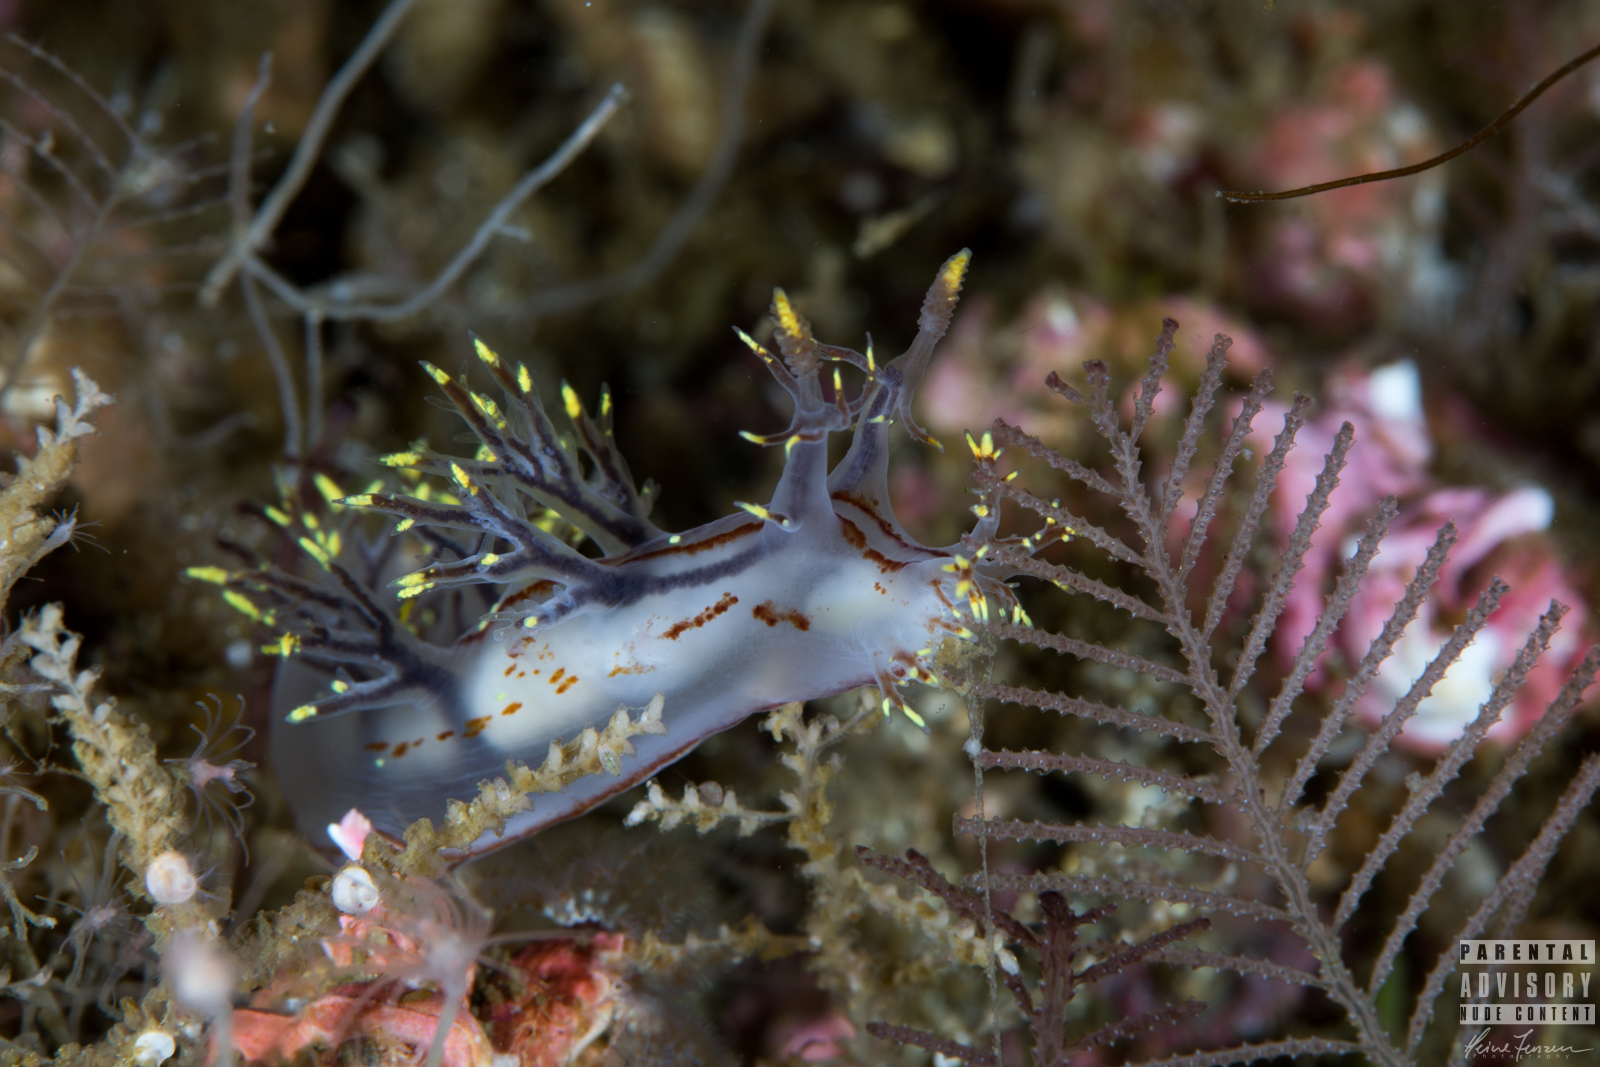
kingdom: Animalia
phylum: Mollusca
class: Gastropoda
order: Nudibranchia
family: Dendronotidae
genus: Dendronotus
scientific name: Dendronotus yrjargul
